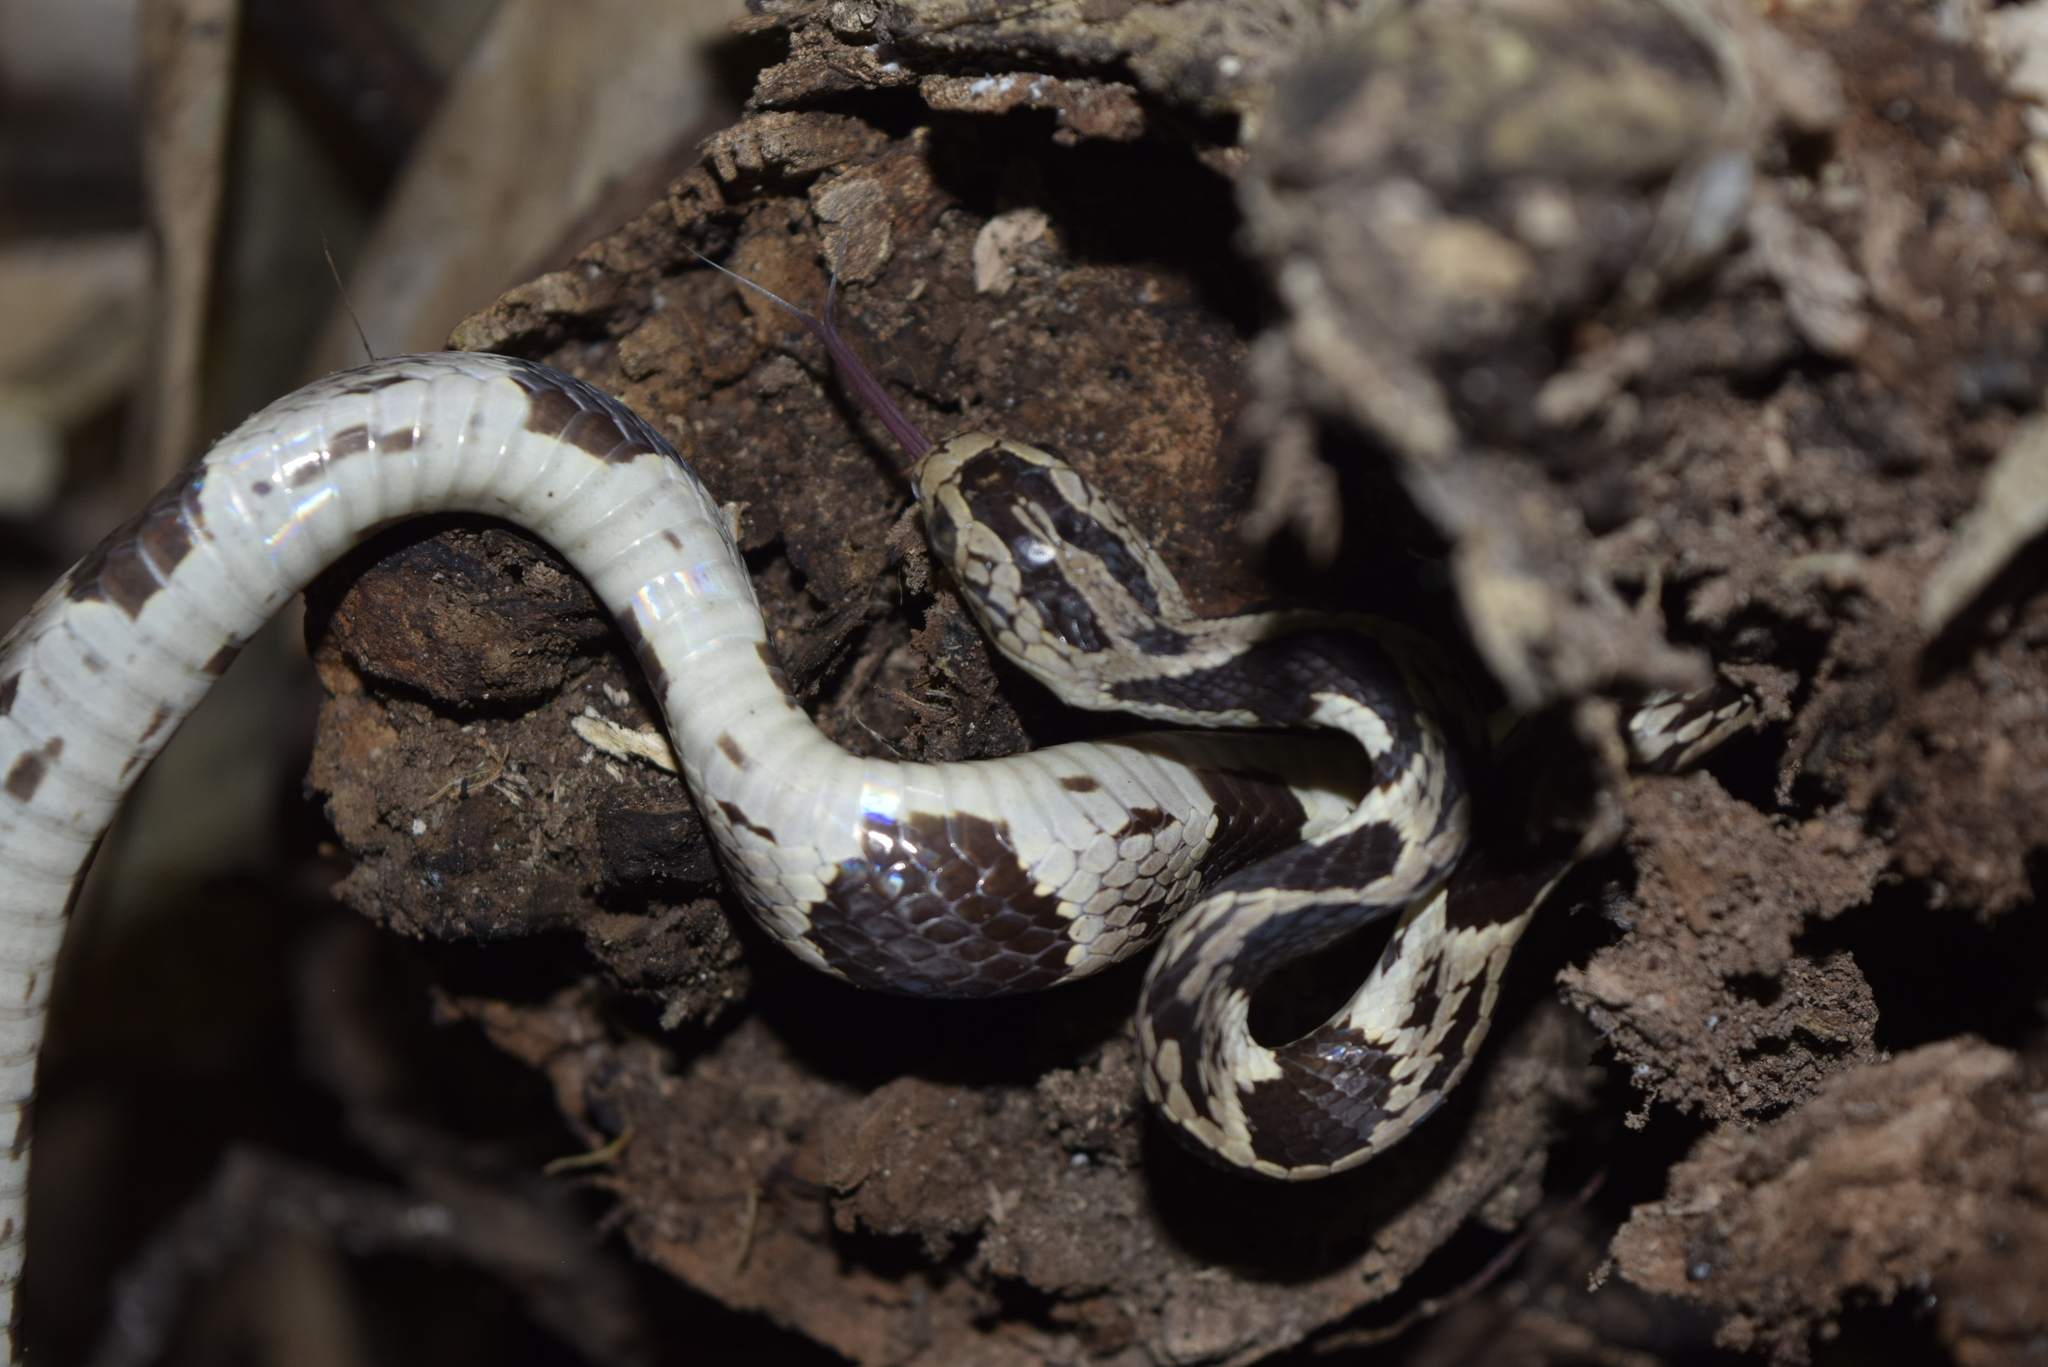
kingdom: Animalia
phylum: Chordata
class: Squamata
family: Colubridae
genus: Dipsas
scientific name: Dipsas andiana
